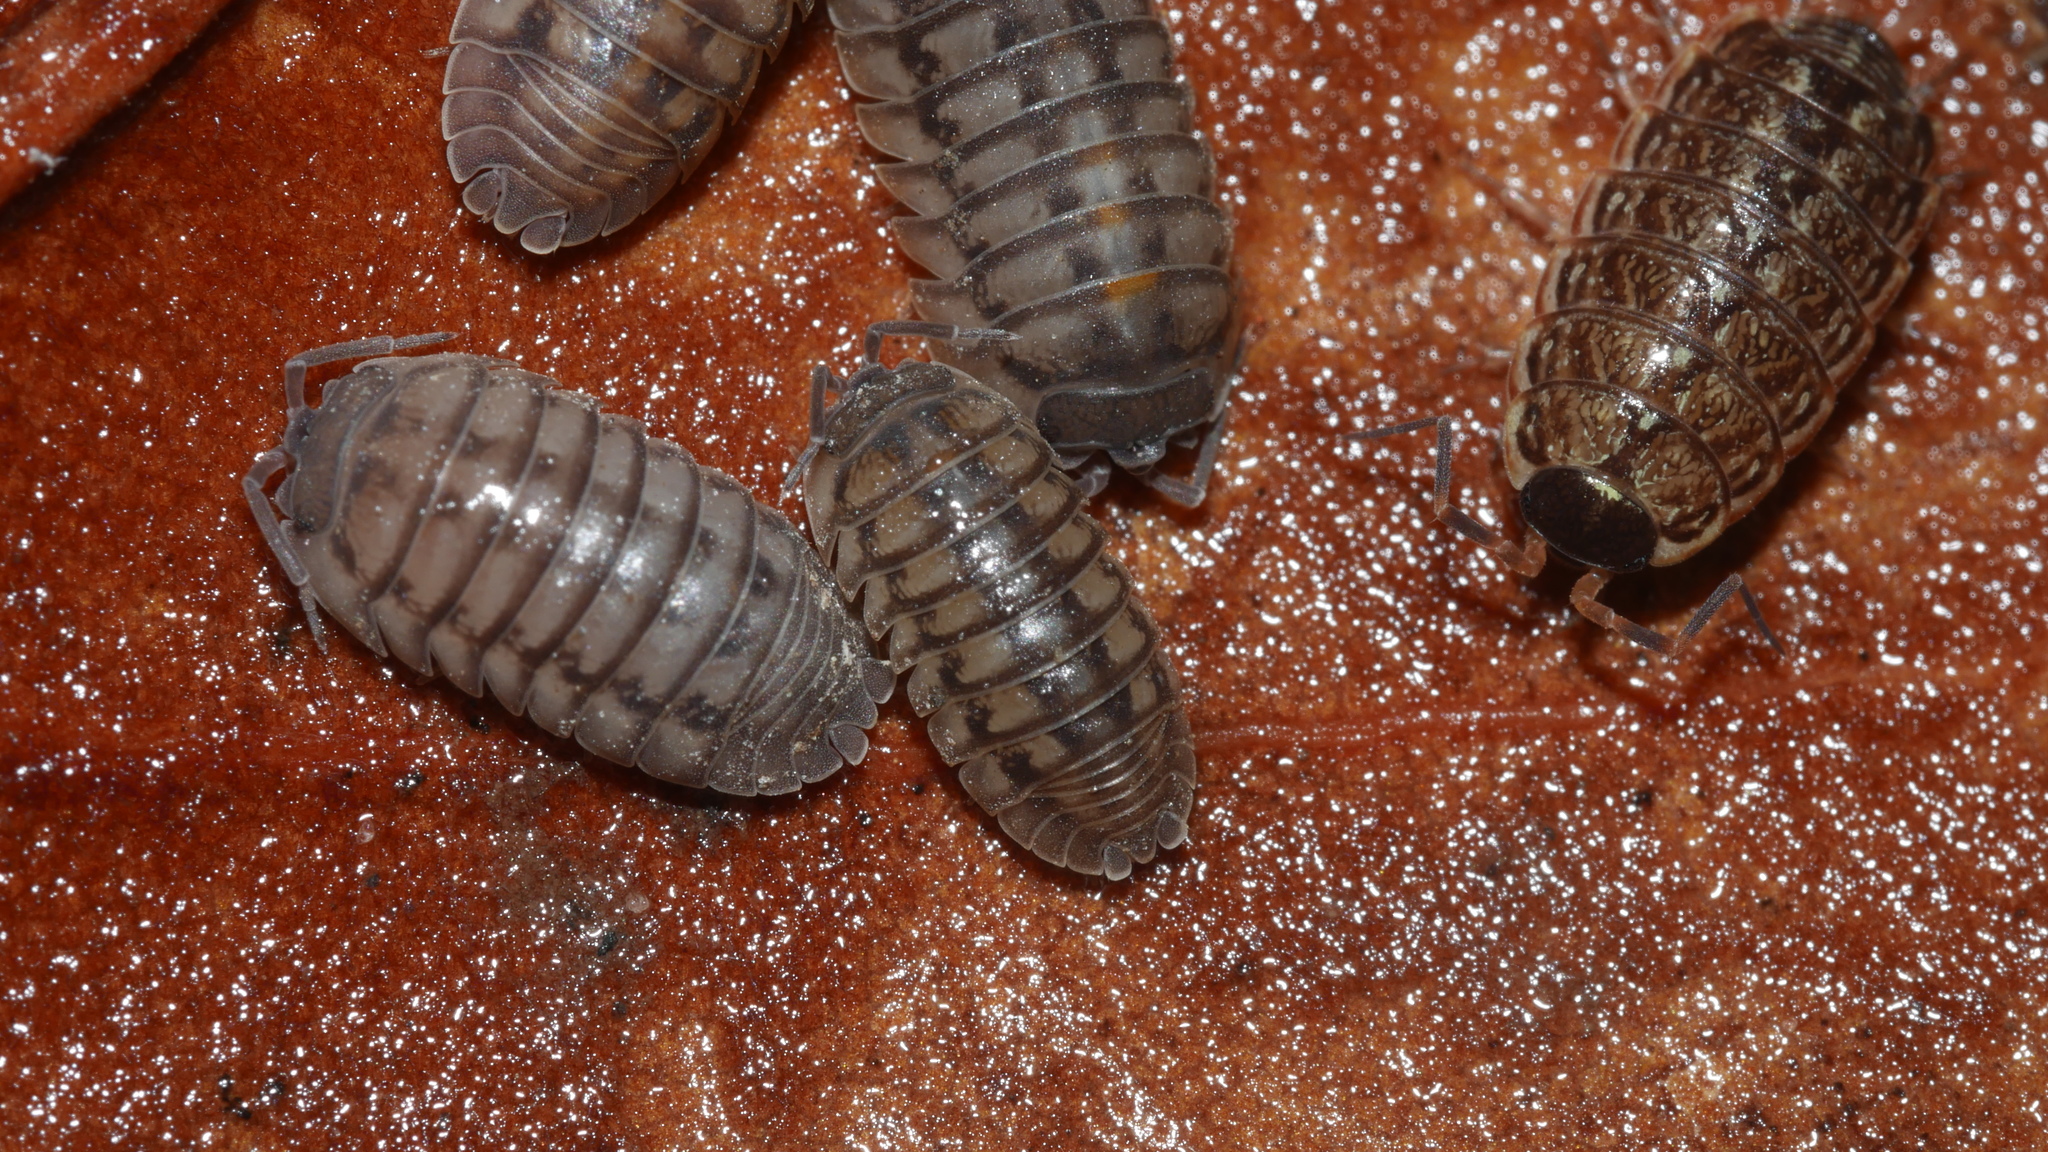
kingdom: Animalia
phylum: Arthropoda
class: Malacostraca
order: Isopoda
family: Armadillidiidae
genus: Armadillidium
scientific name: Armadillidium nasatum
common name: Isopod
